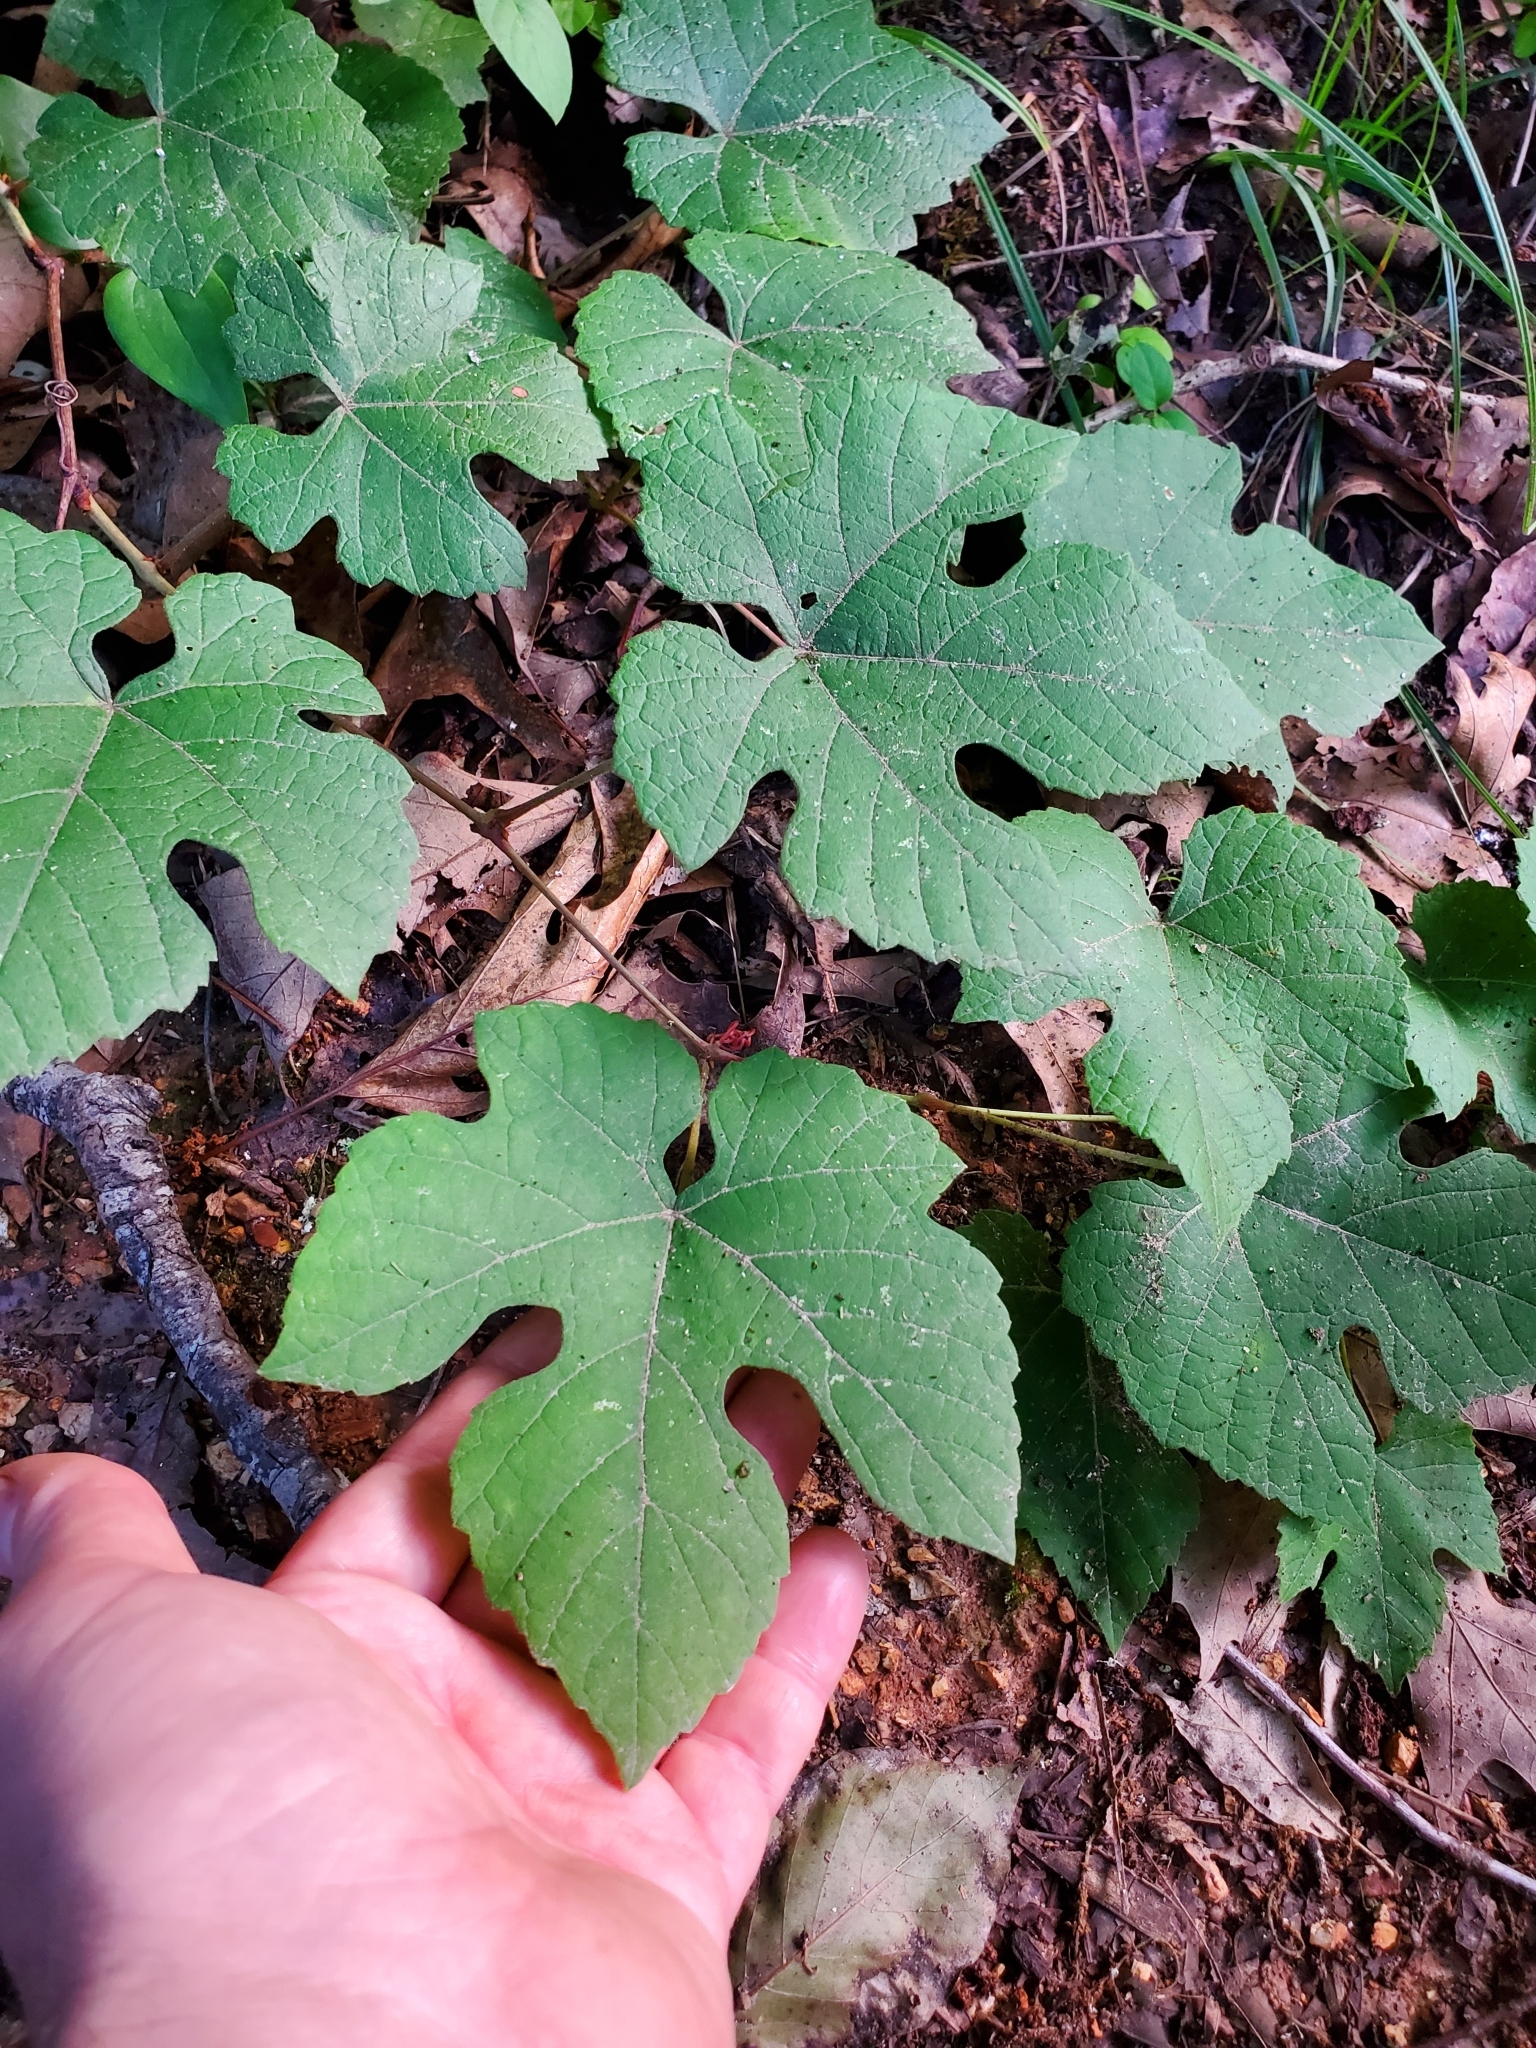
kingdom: Plantae
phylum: Tracheophyta
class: Magnoliopsida
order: Vitales
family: Vitaceae
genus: Vitis
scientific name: Vitis aestivalis
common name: Pigeon grape
